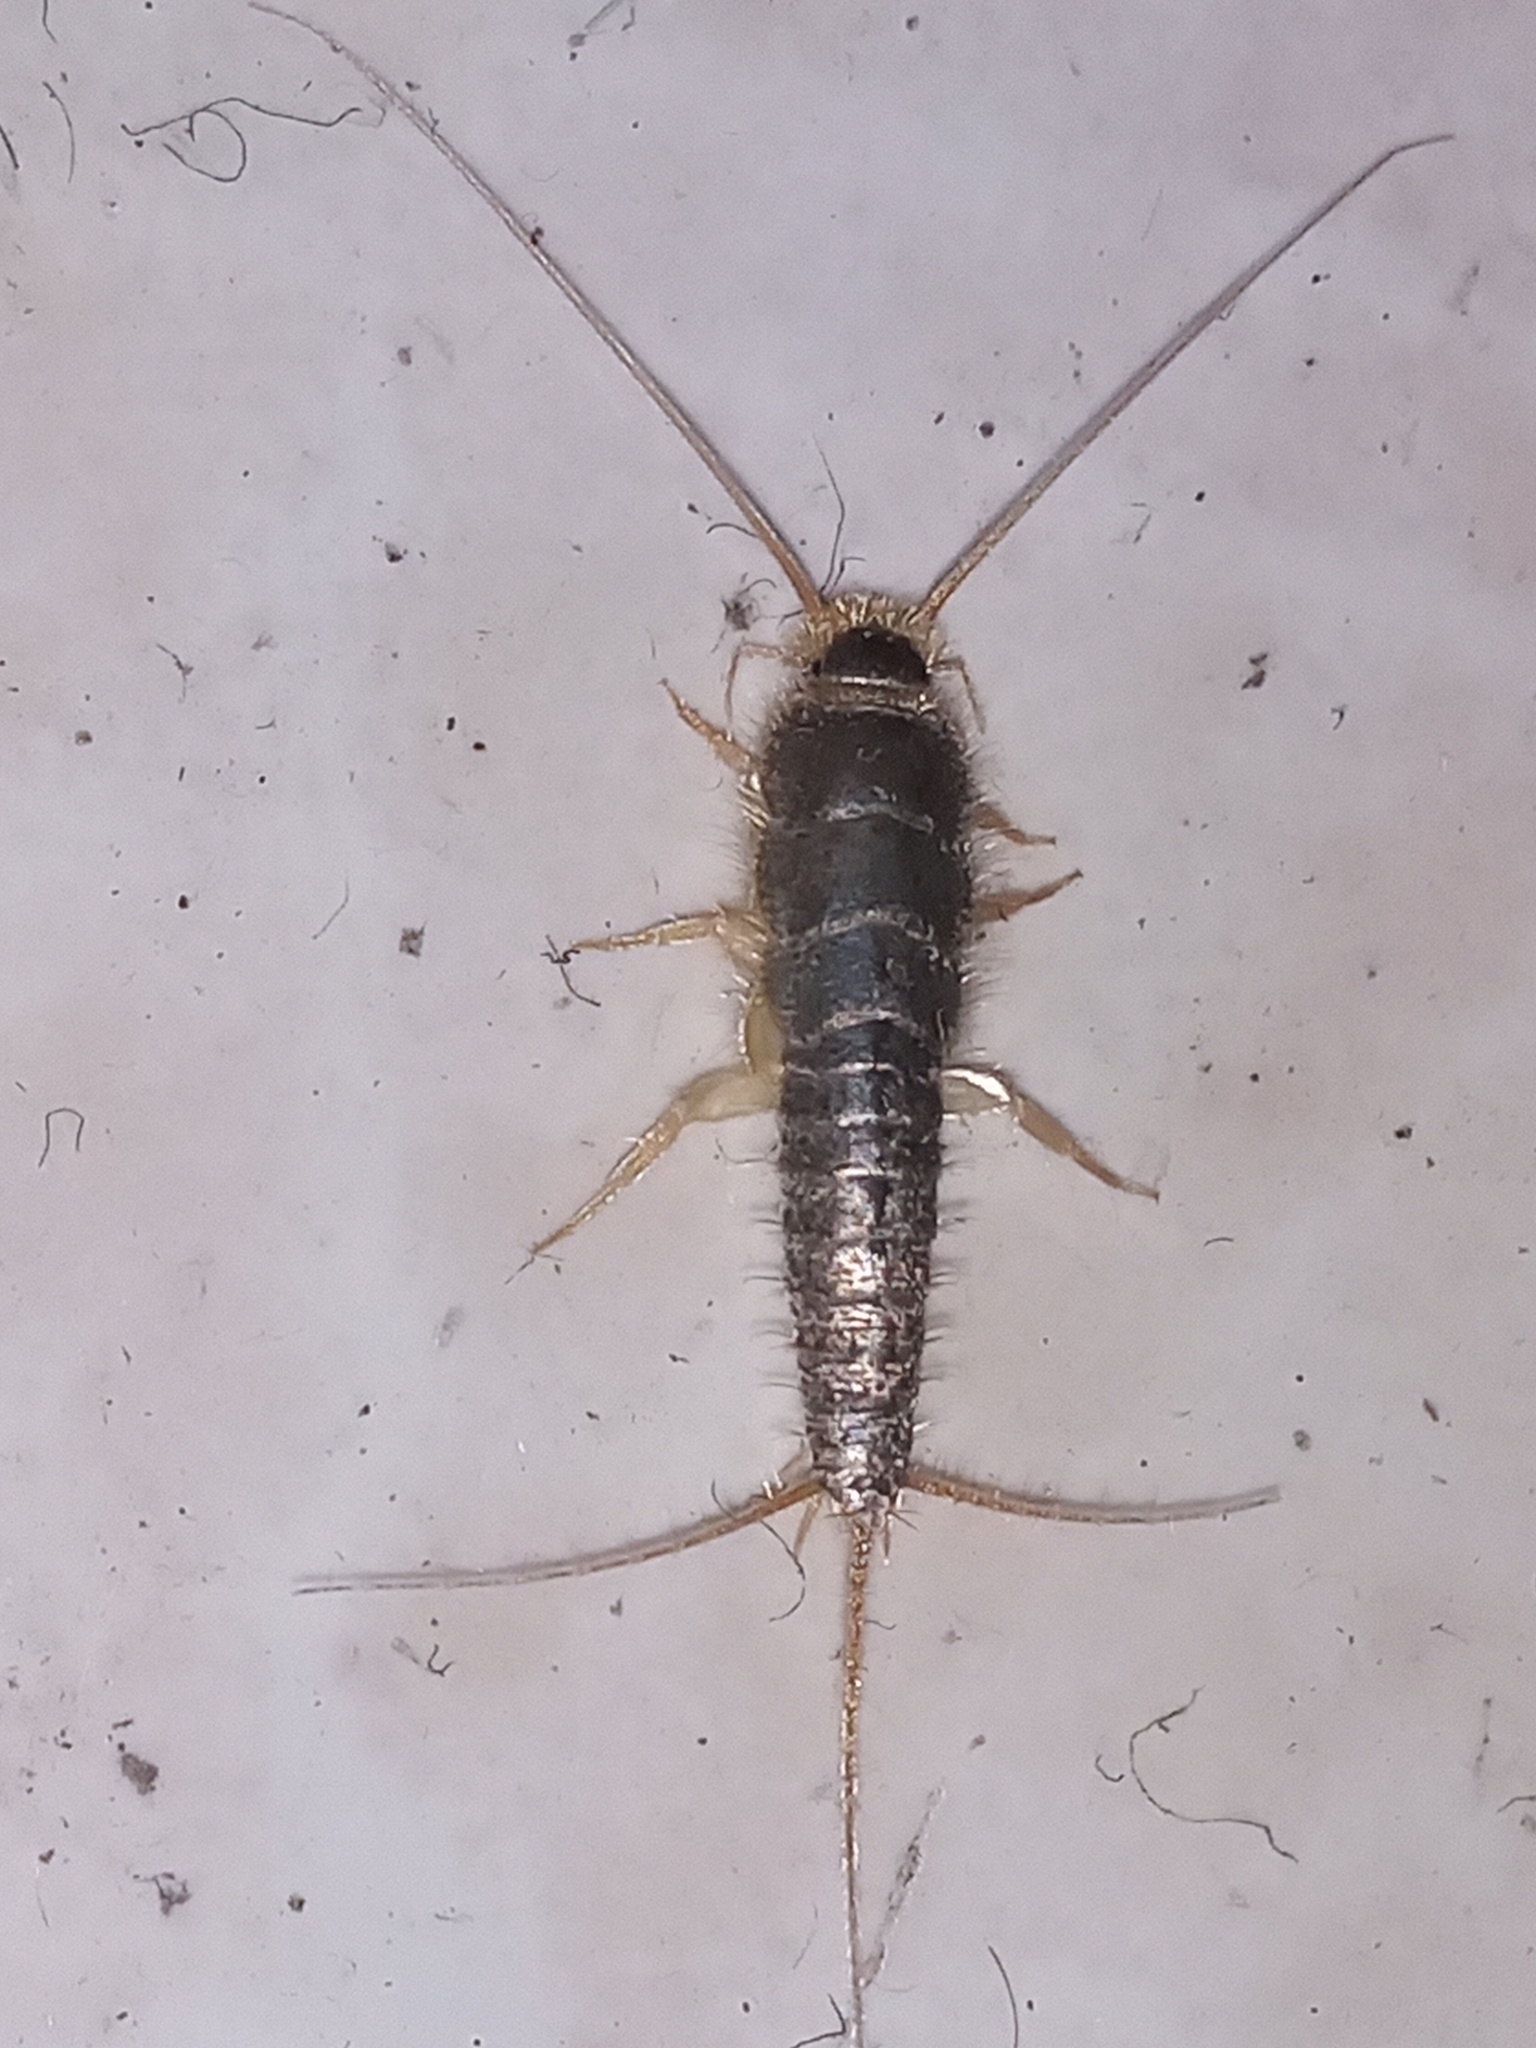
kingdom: Animalia
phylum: Arthropoda
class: Insecta
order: Zygentoma
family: Lepismatidae
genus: Ctenolepisma
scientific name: Ctenolepisma longicaudatum
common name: Silverfish
